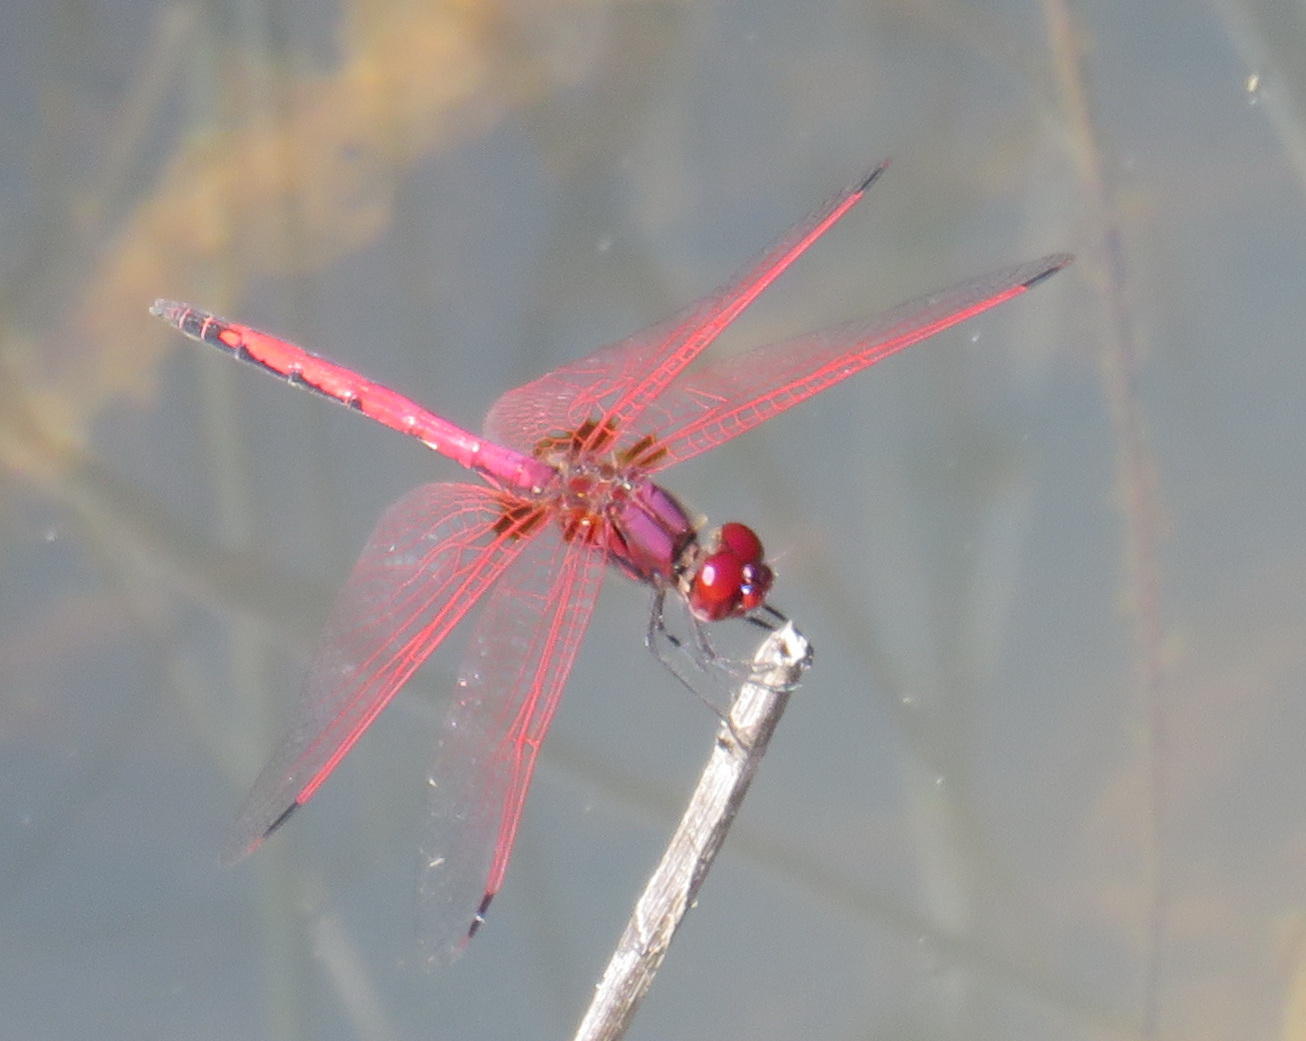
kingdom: Animalia
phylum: Arthropoda
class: Insecta
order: Odonata
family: Libellulidae
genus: Trithemis
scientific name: Trithemis arteriosa
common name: Red-veined dropwing
